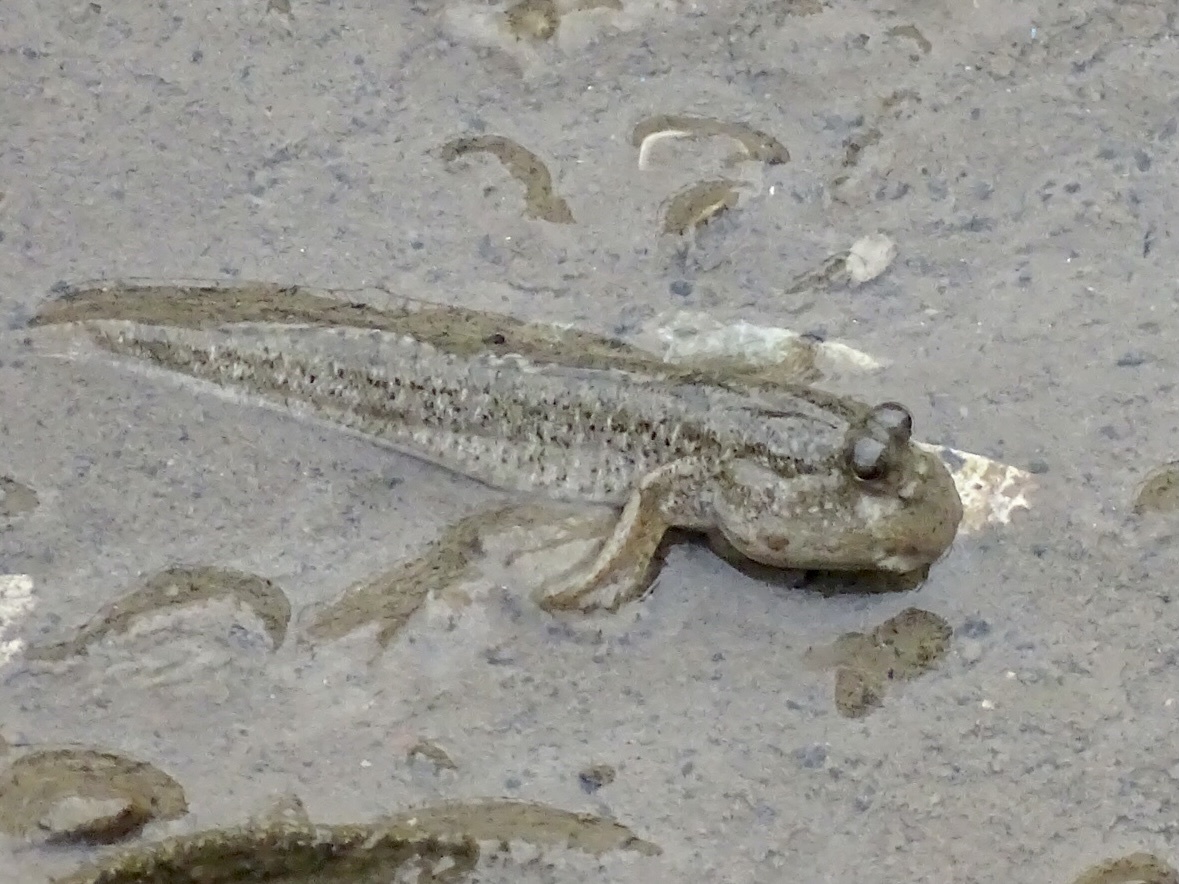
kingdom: Animalia
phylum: Chordata
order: Perciformes
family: Gobiidae
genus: Periophthalmus
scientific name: Periophthalmus modestus
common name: Black goby
